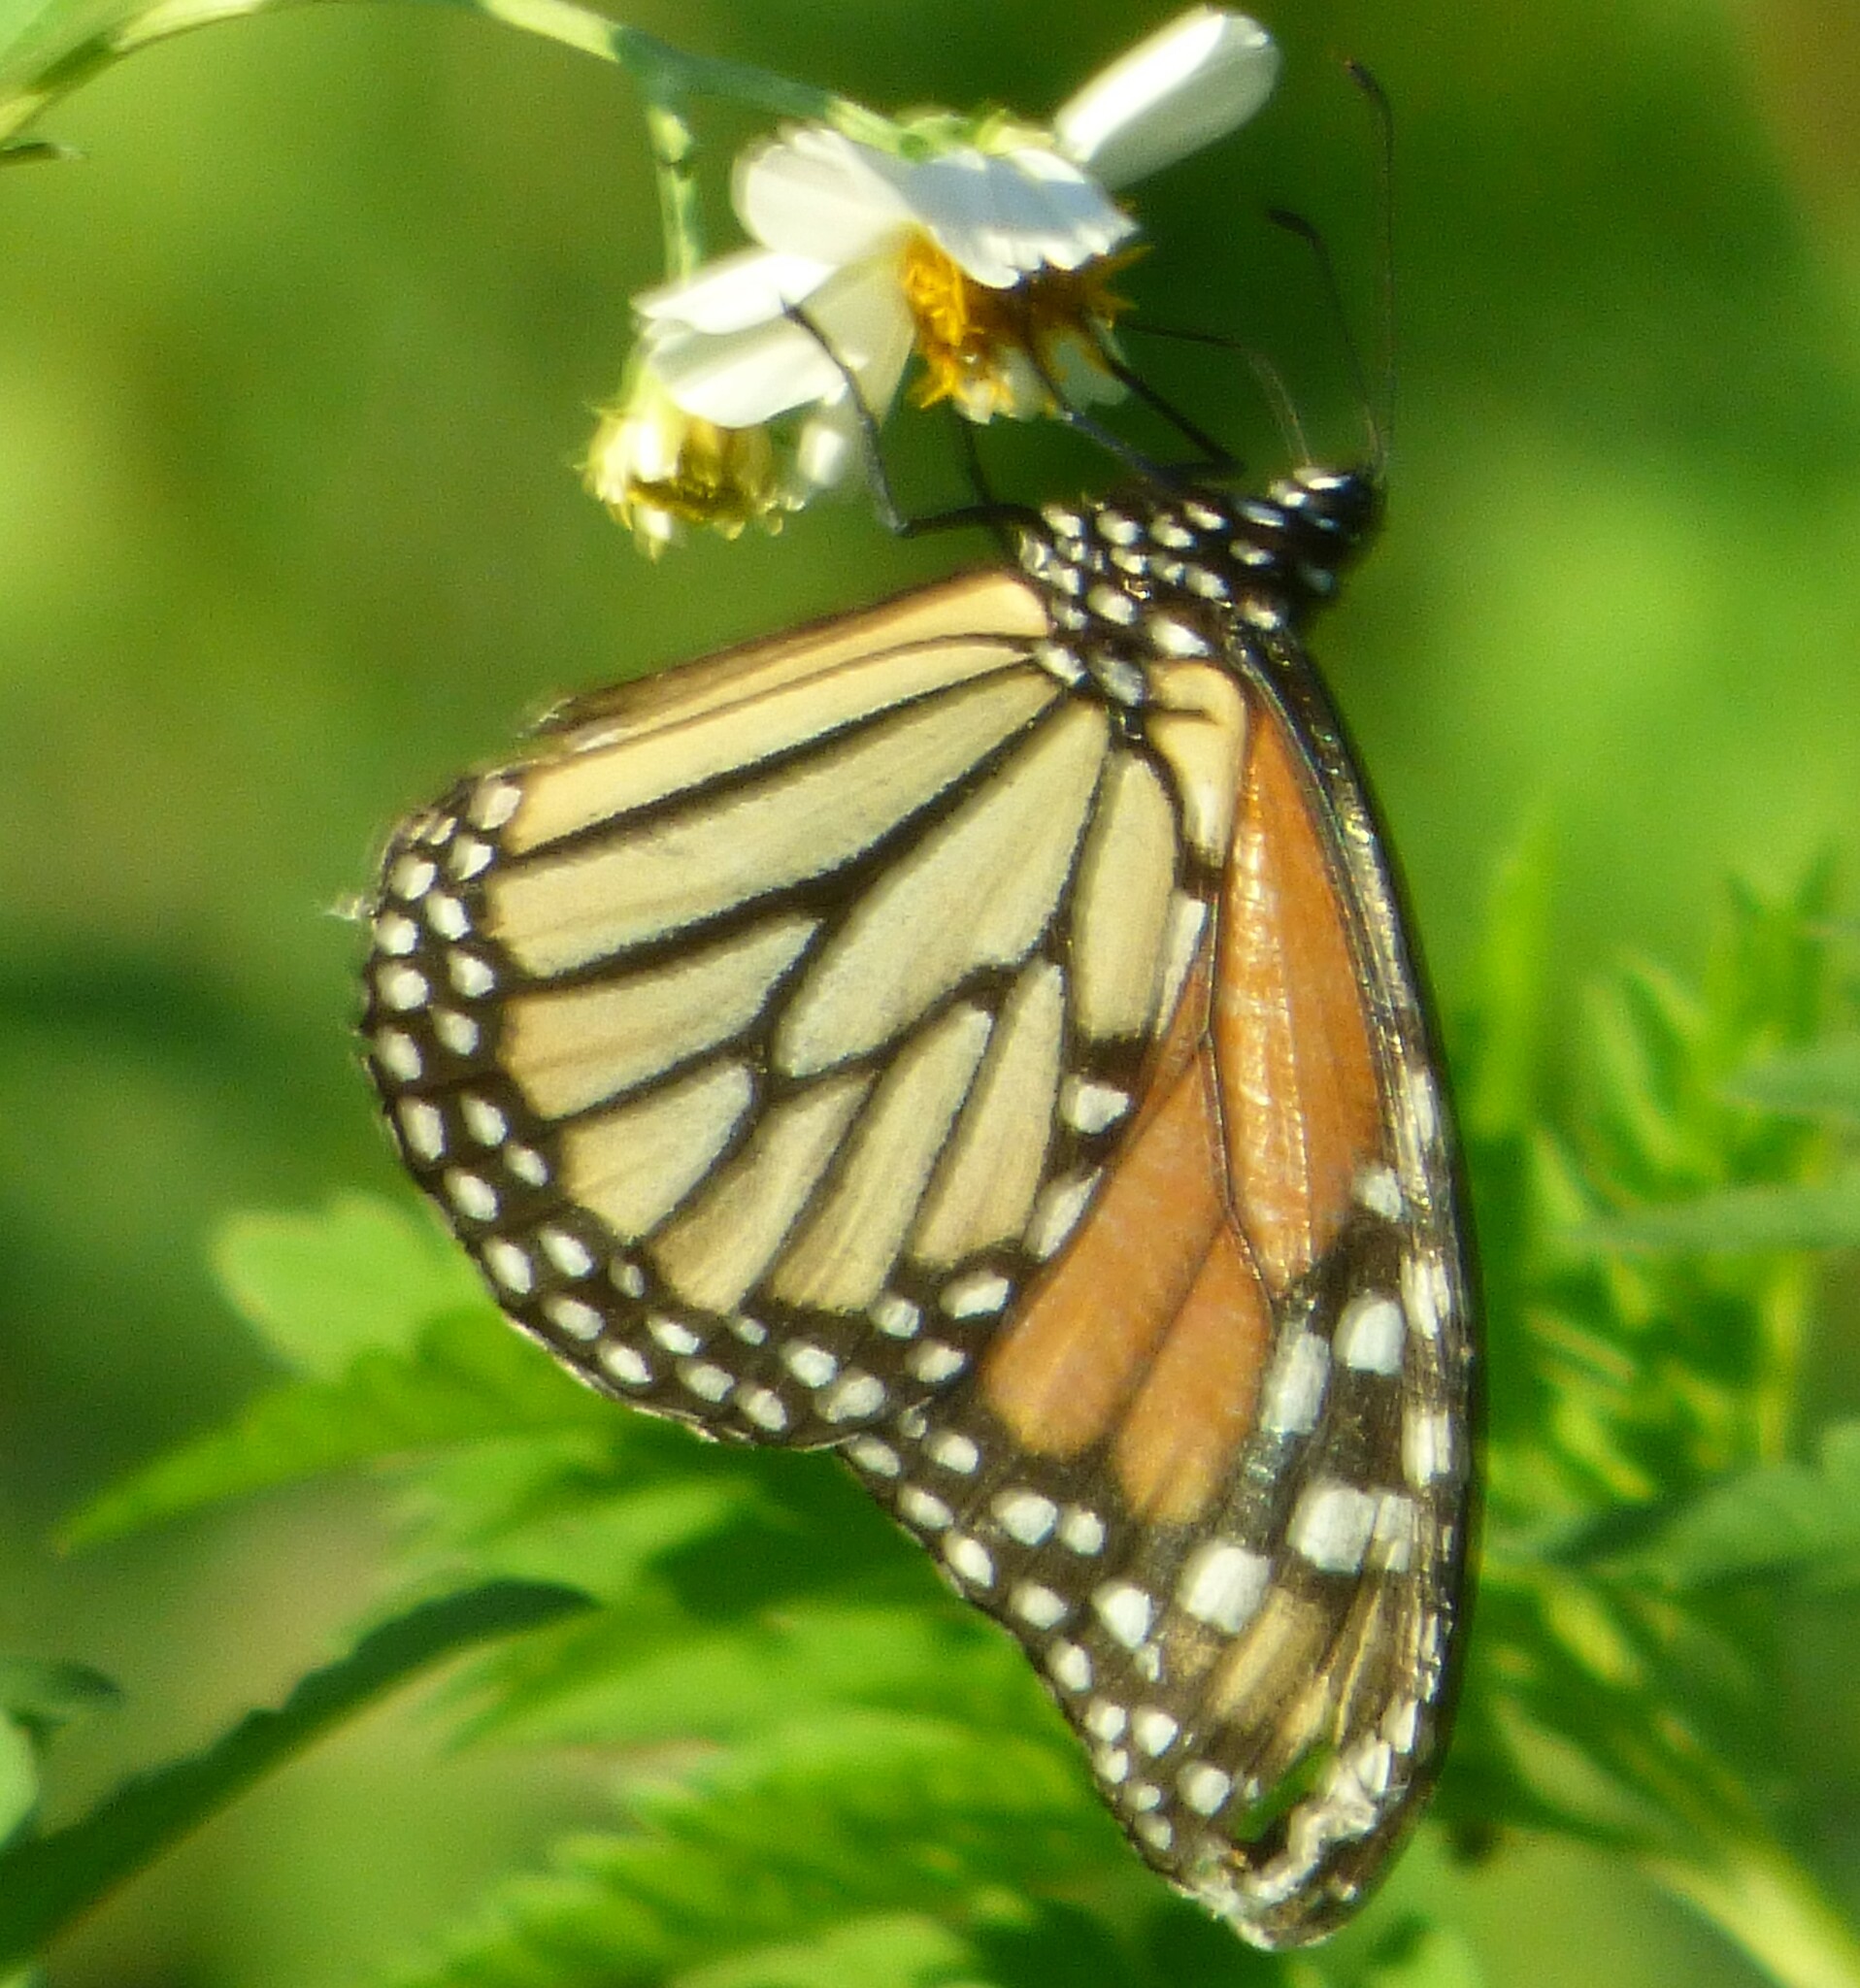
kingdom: Animalia
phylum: Arthropoda
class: Insecta
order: Lepidoptera
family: Nymphalidae
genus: Danaus
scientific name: Danaus plexippus
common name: Monarch
